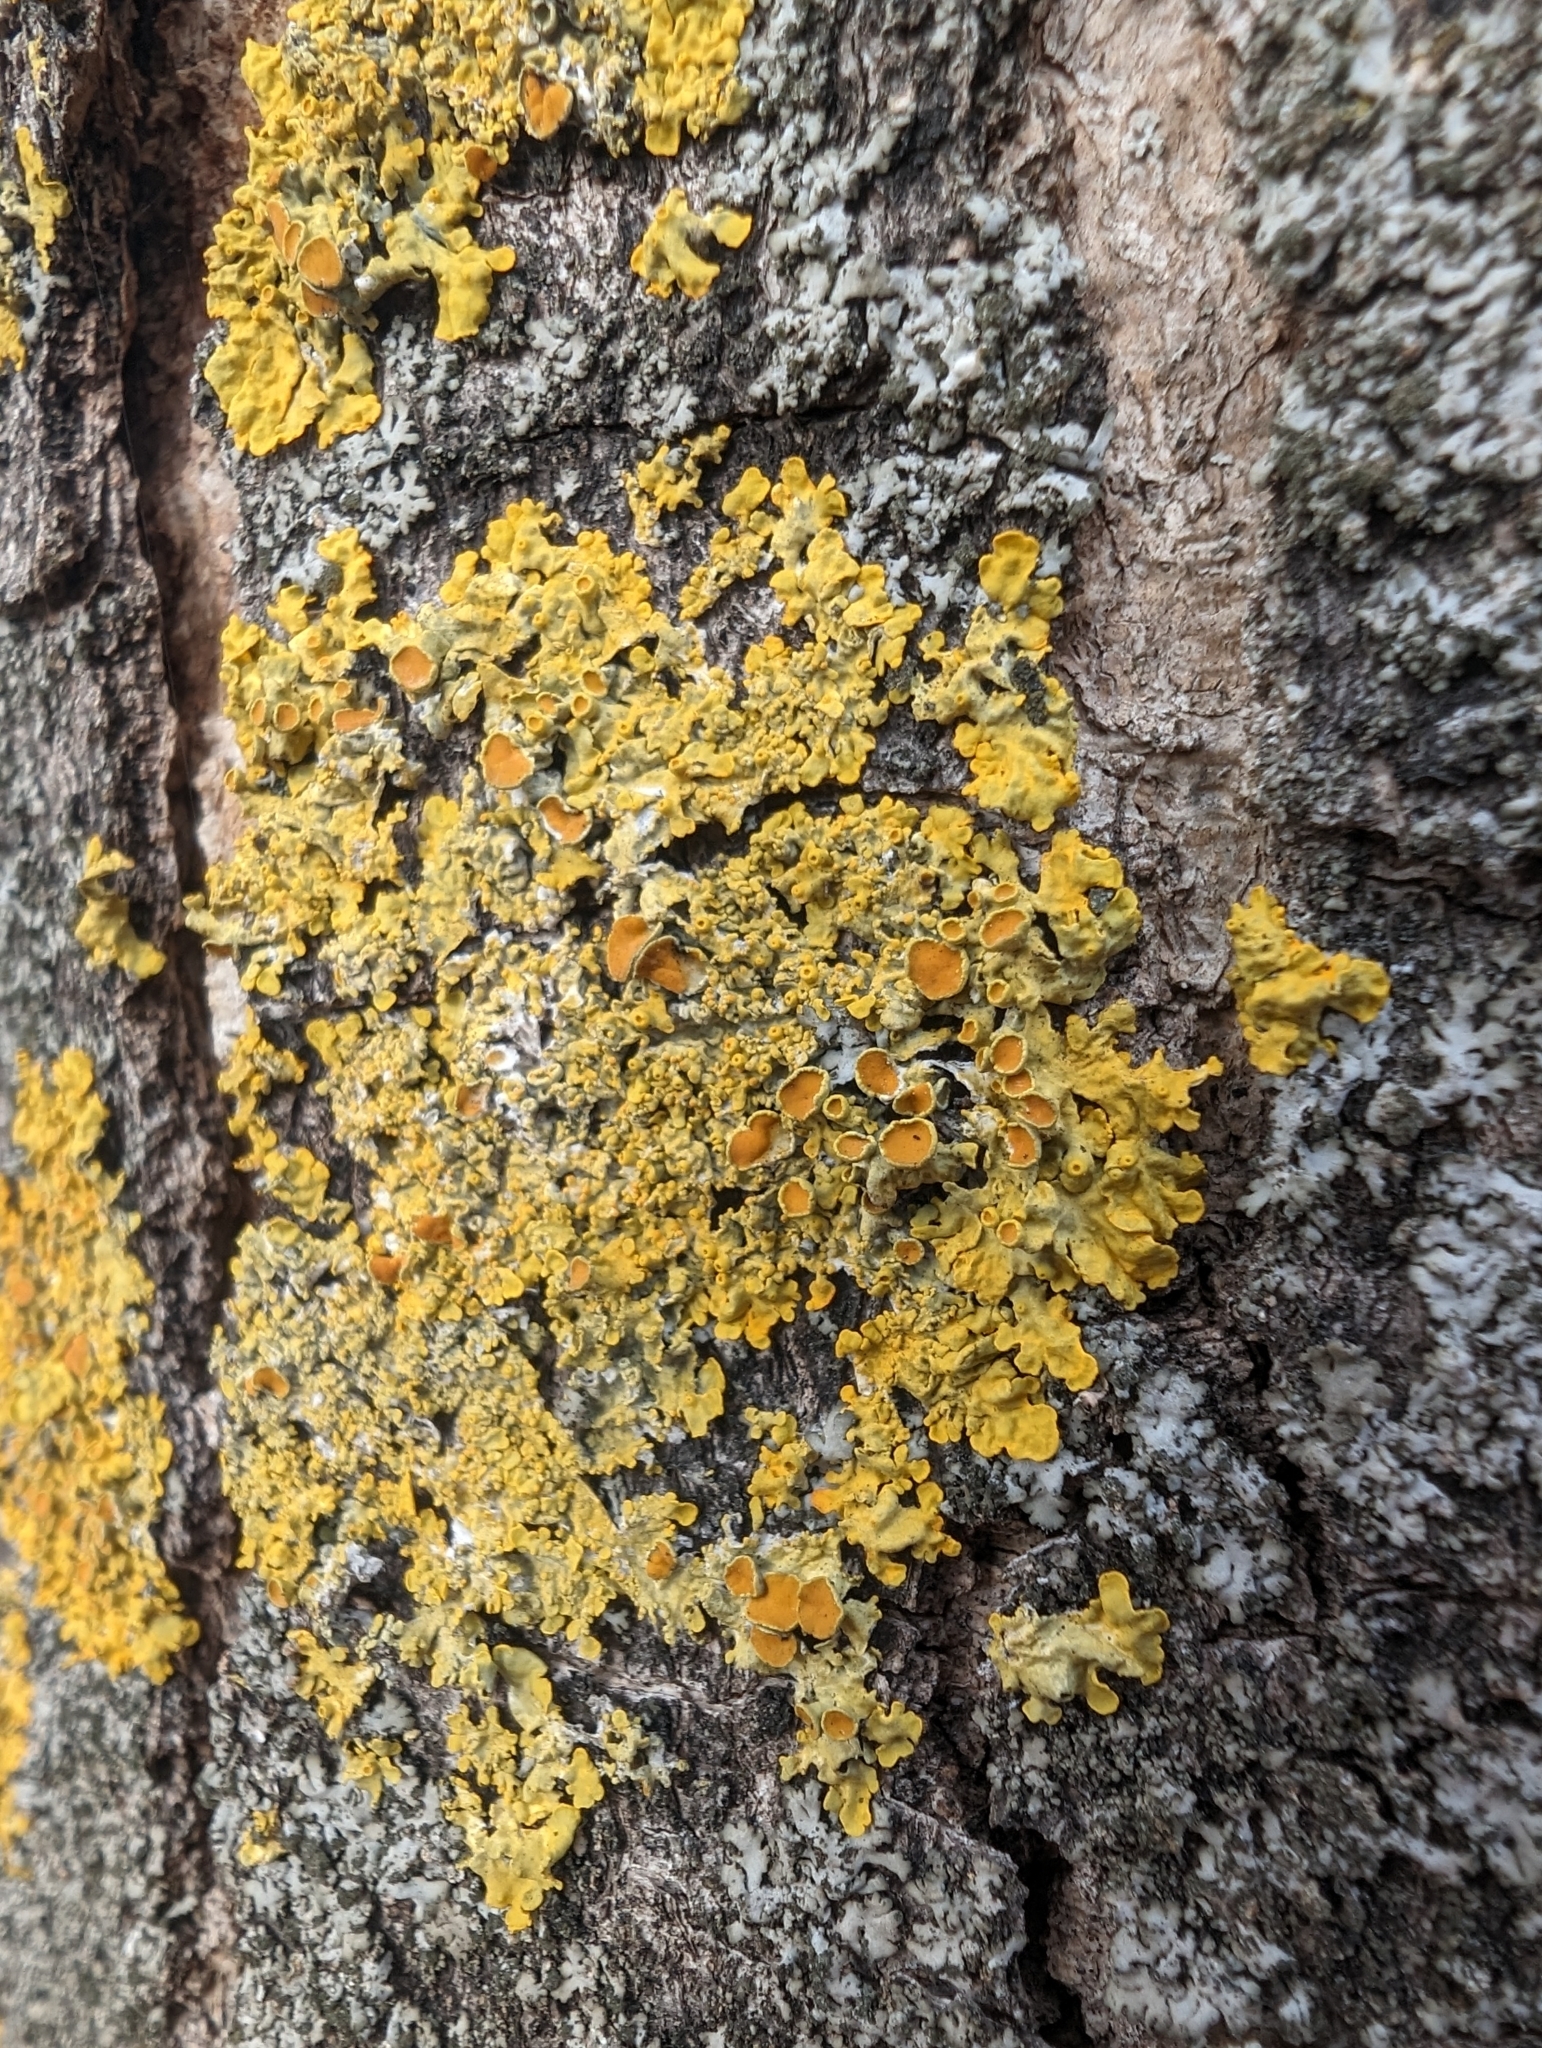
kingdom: Fungi
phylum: Ascomycota
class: Lecanoromycetes
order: Teloschistales
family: Teloschistaceae
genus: Xanthoria
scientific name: Xanthoria parietina
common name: Common orange lichen
